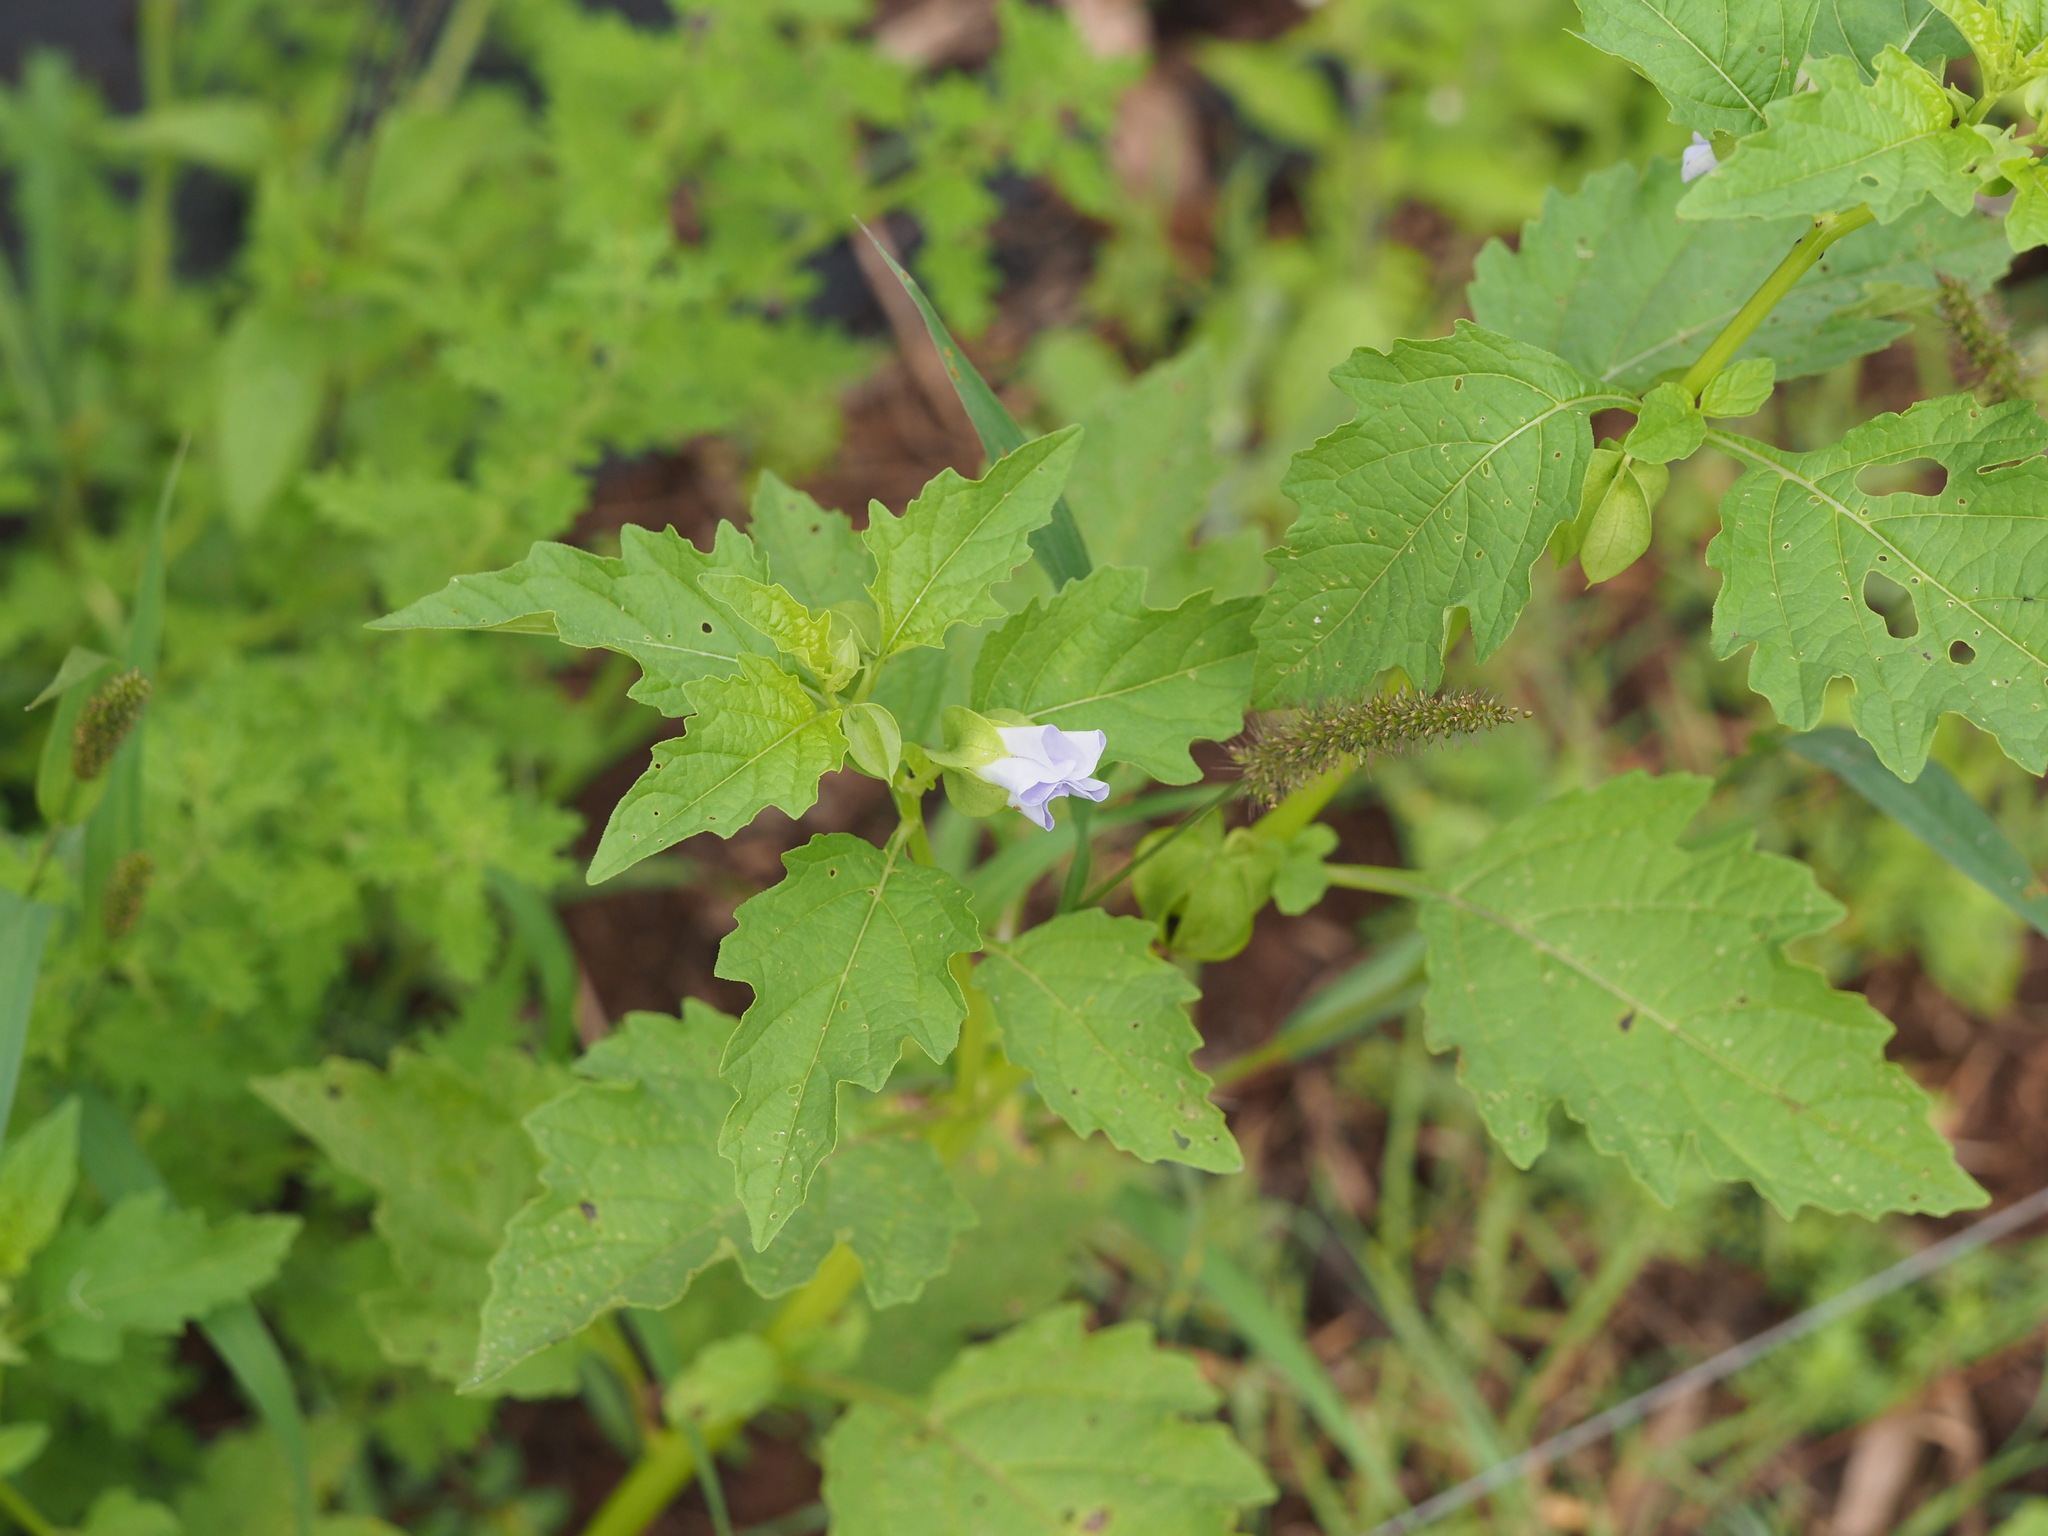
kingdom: Plantae
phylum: Tracheophyta
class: Magnoliopsida
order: Solanales
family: Solanaceae
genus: Nicandra
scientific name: Nicandra physalodes
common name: Apple-of-peru
